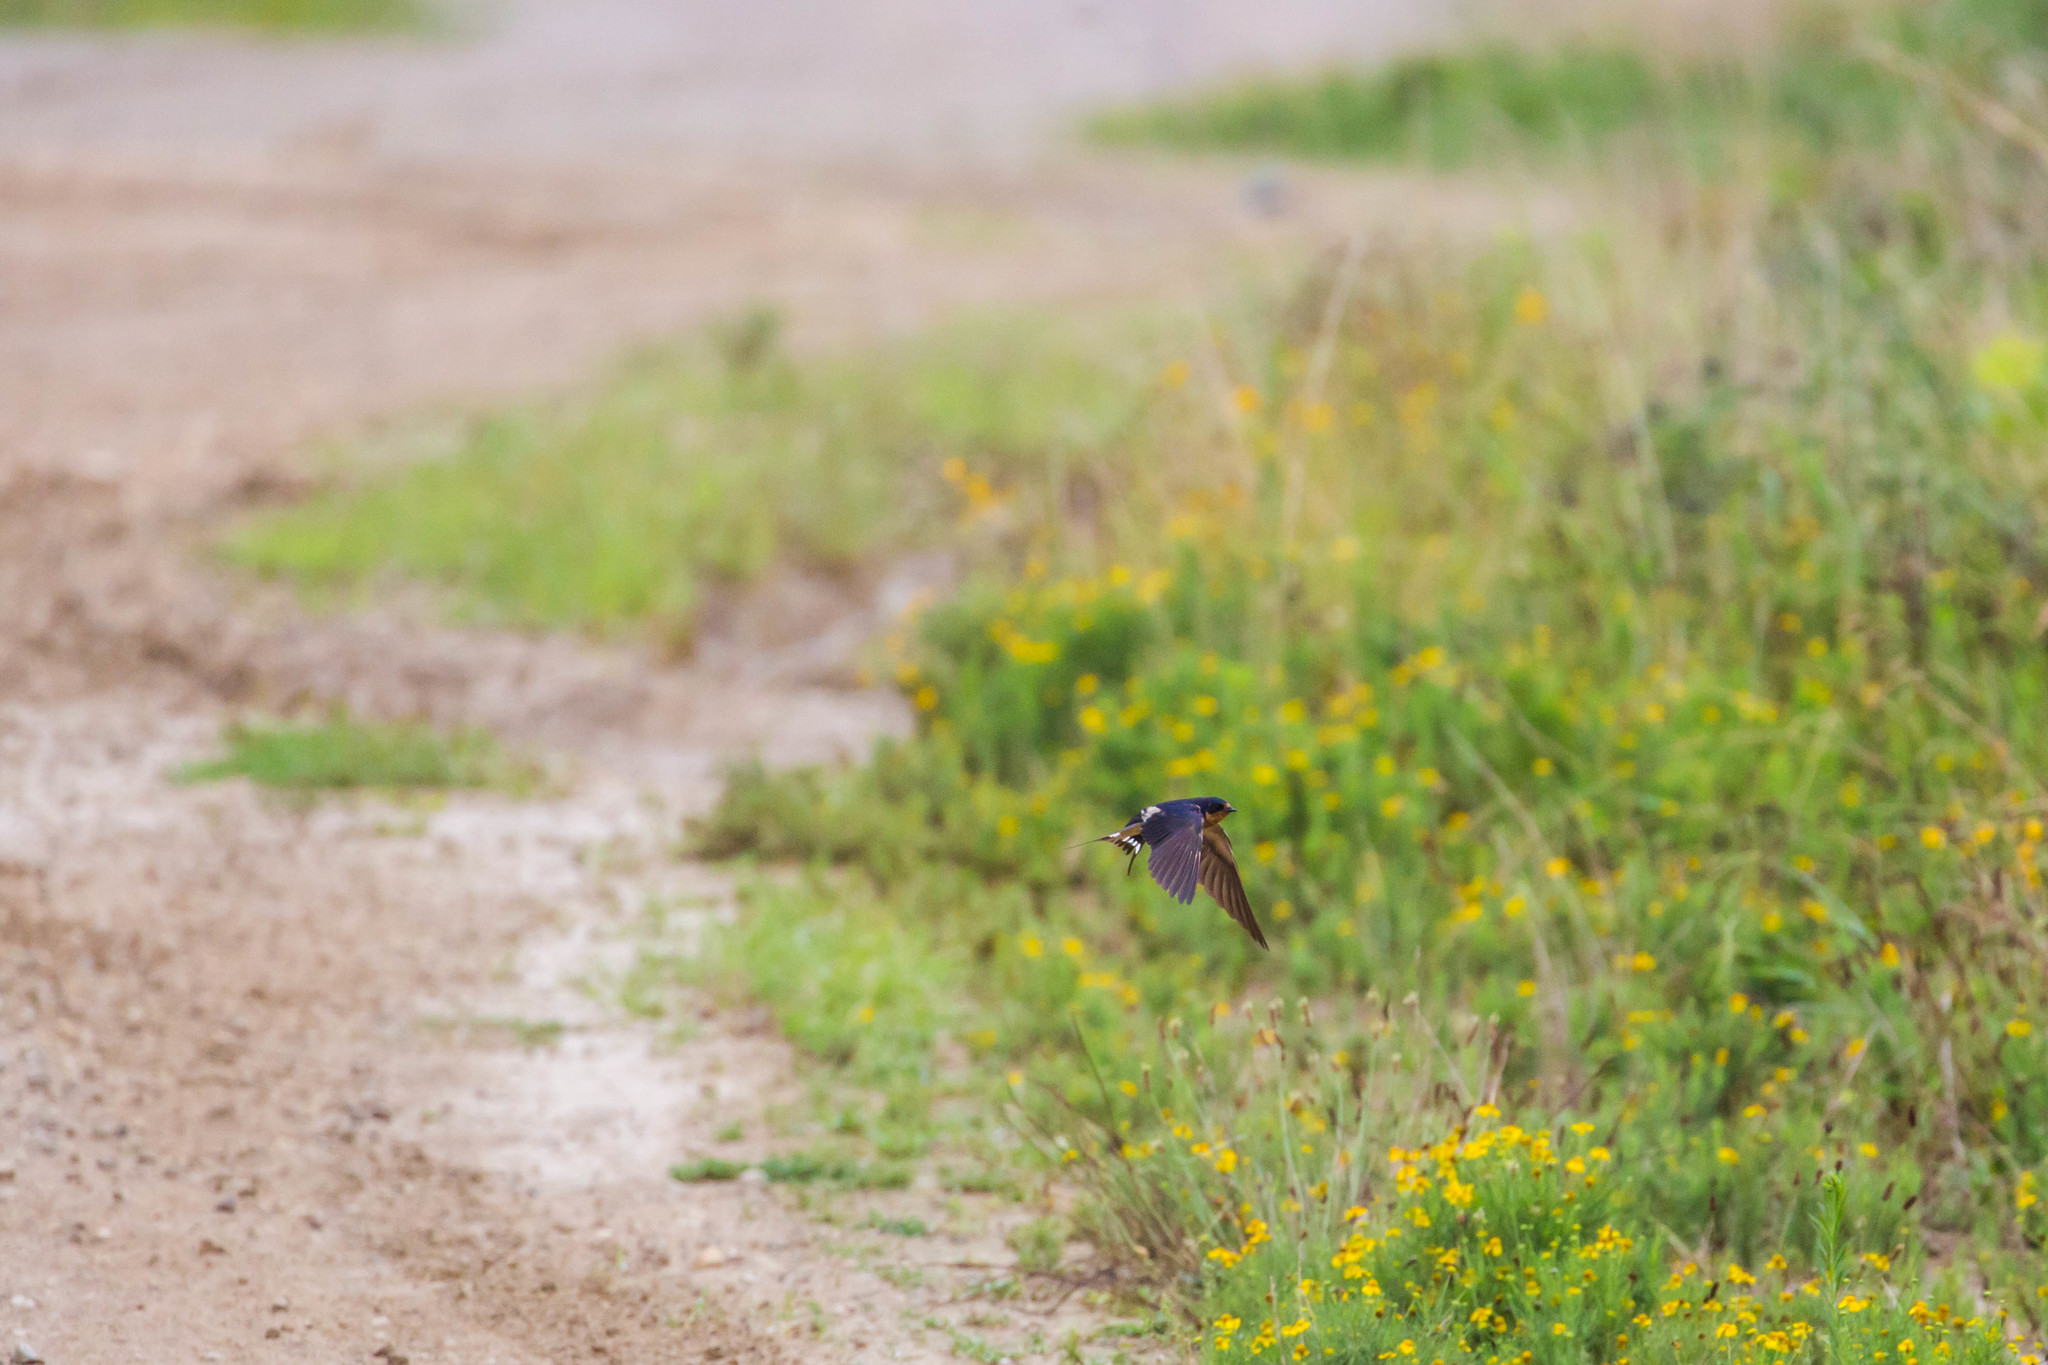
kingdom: Animalia
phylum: Chordata
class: Aves
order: Passeriformes
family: Hirundinidae
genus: Hirundo
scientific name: Hirundo rustica
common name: Barn swallow
